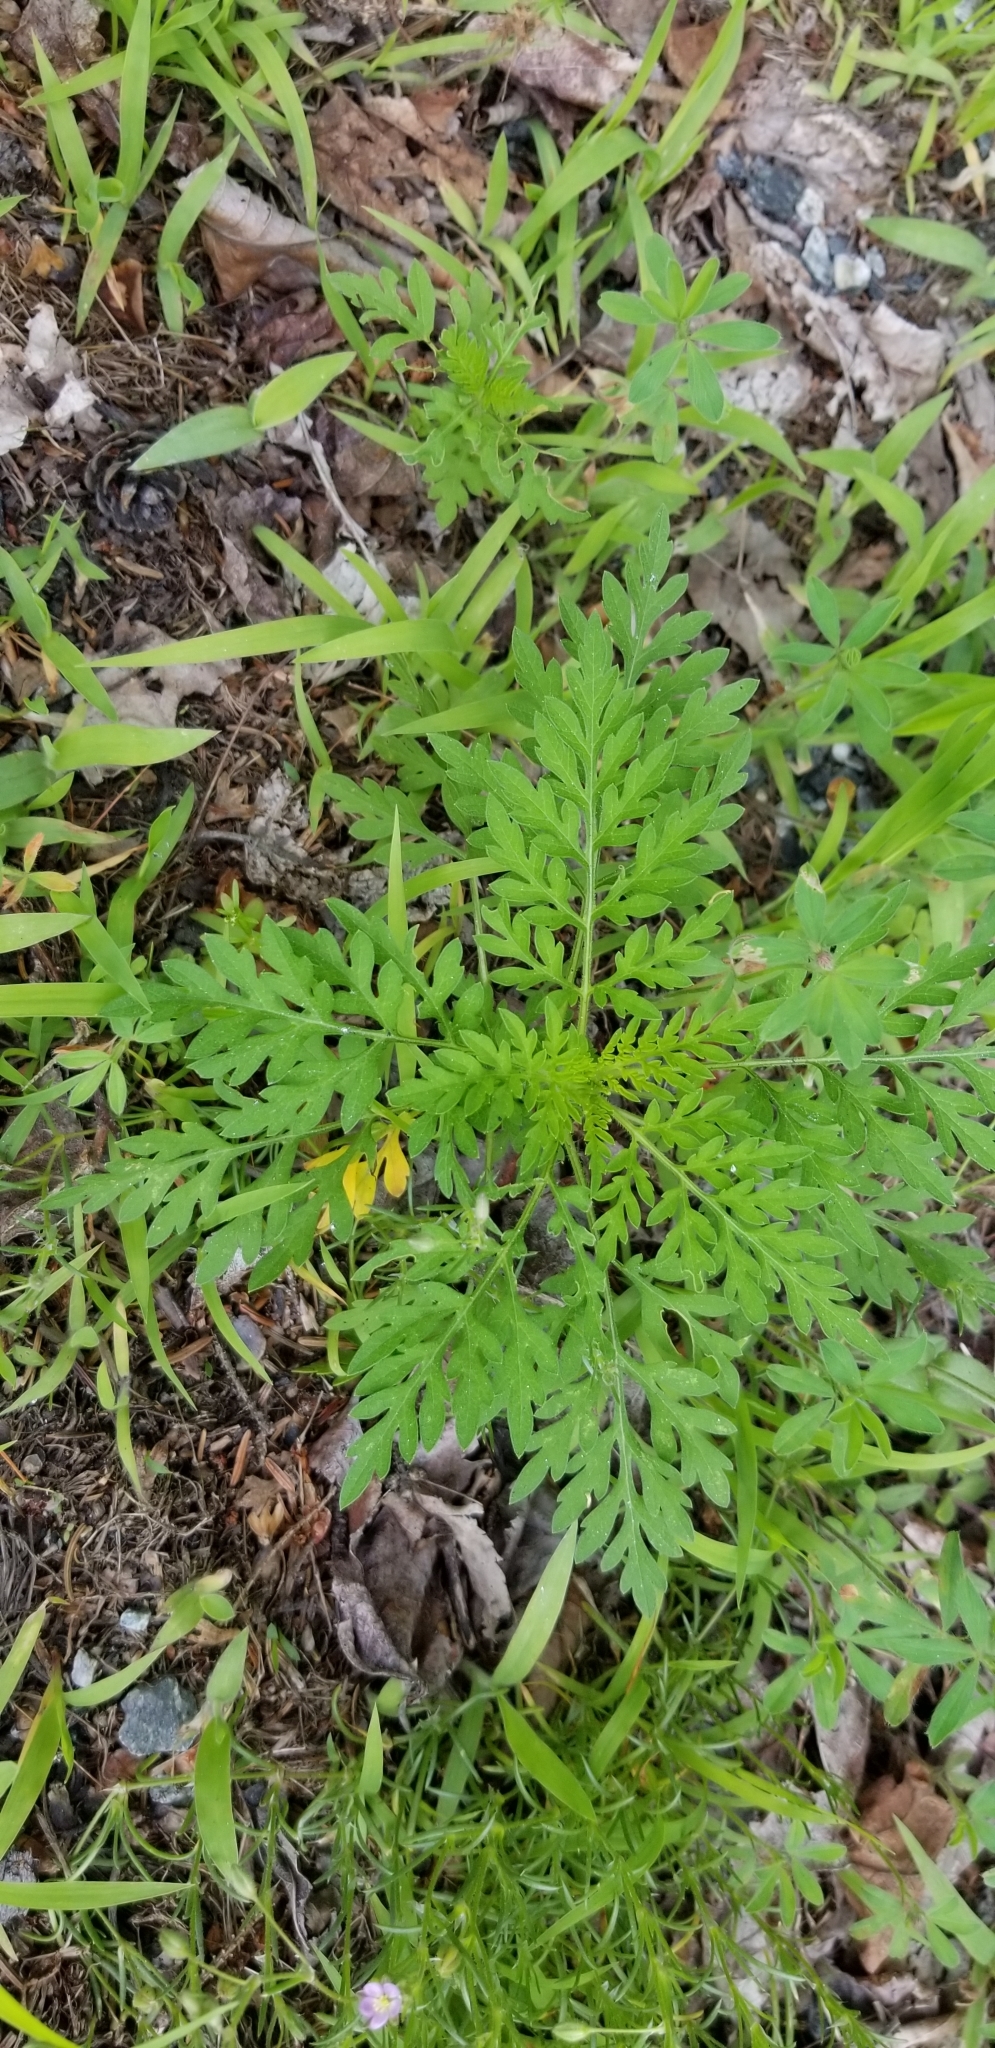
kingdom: Plantae
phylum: Tracheophyta
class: Magnoliopsida
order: Asterales
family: Asteraceae
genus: Ambrosia
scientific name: Ambrosia artemisiifolia
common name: Annual ragweed
